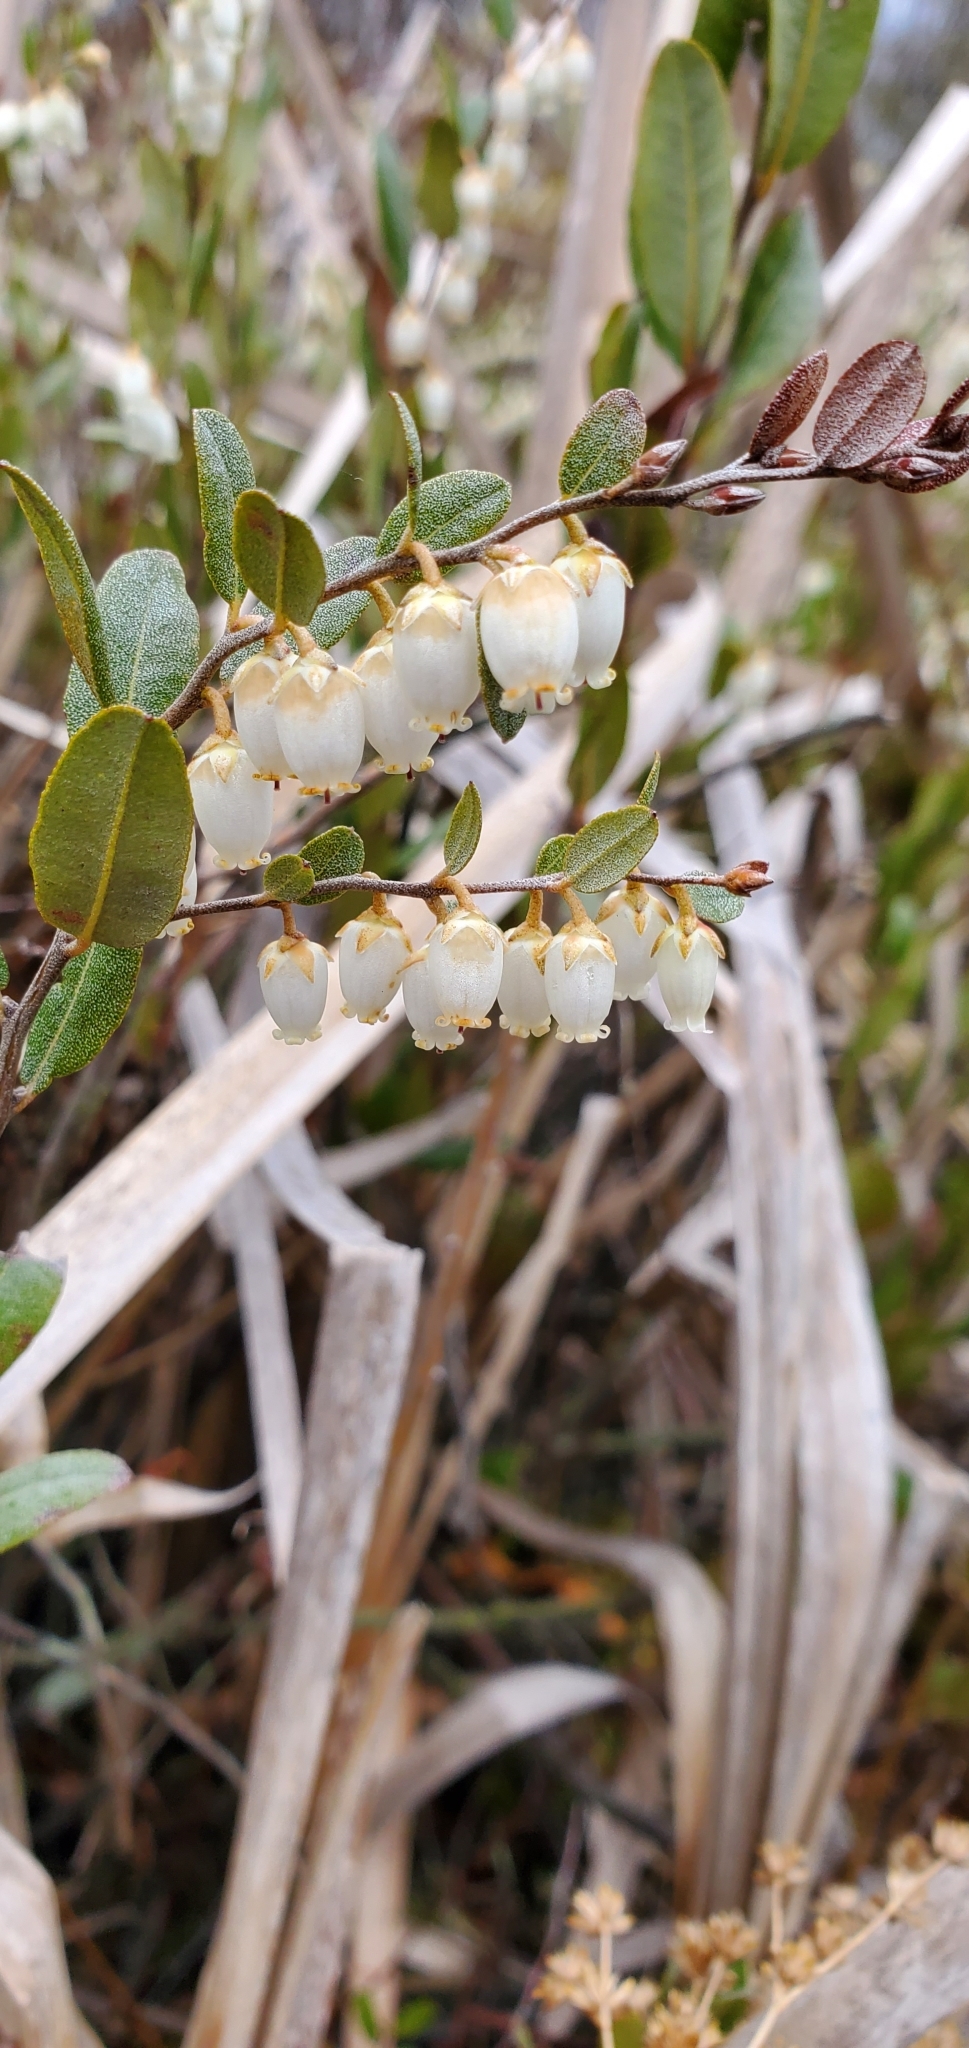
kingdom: Plantae
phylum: Tracheophyta
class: Magnoliopsida
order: Ericales
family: Ericaceae
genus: Chamaedaphne
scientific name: Chamaedaphne calyculata
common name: Leatherleaf
